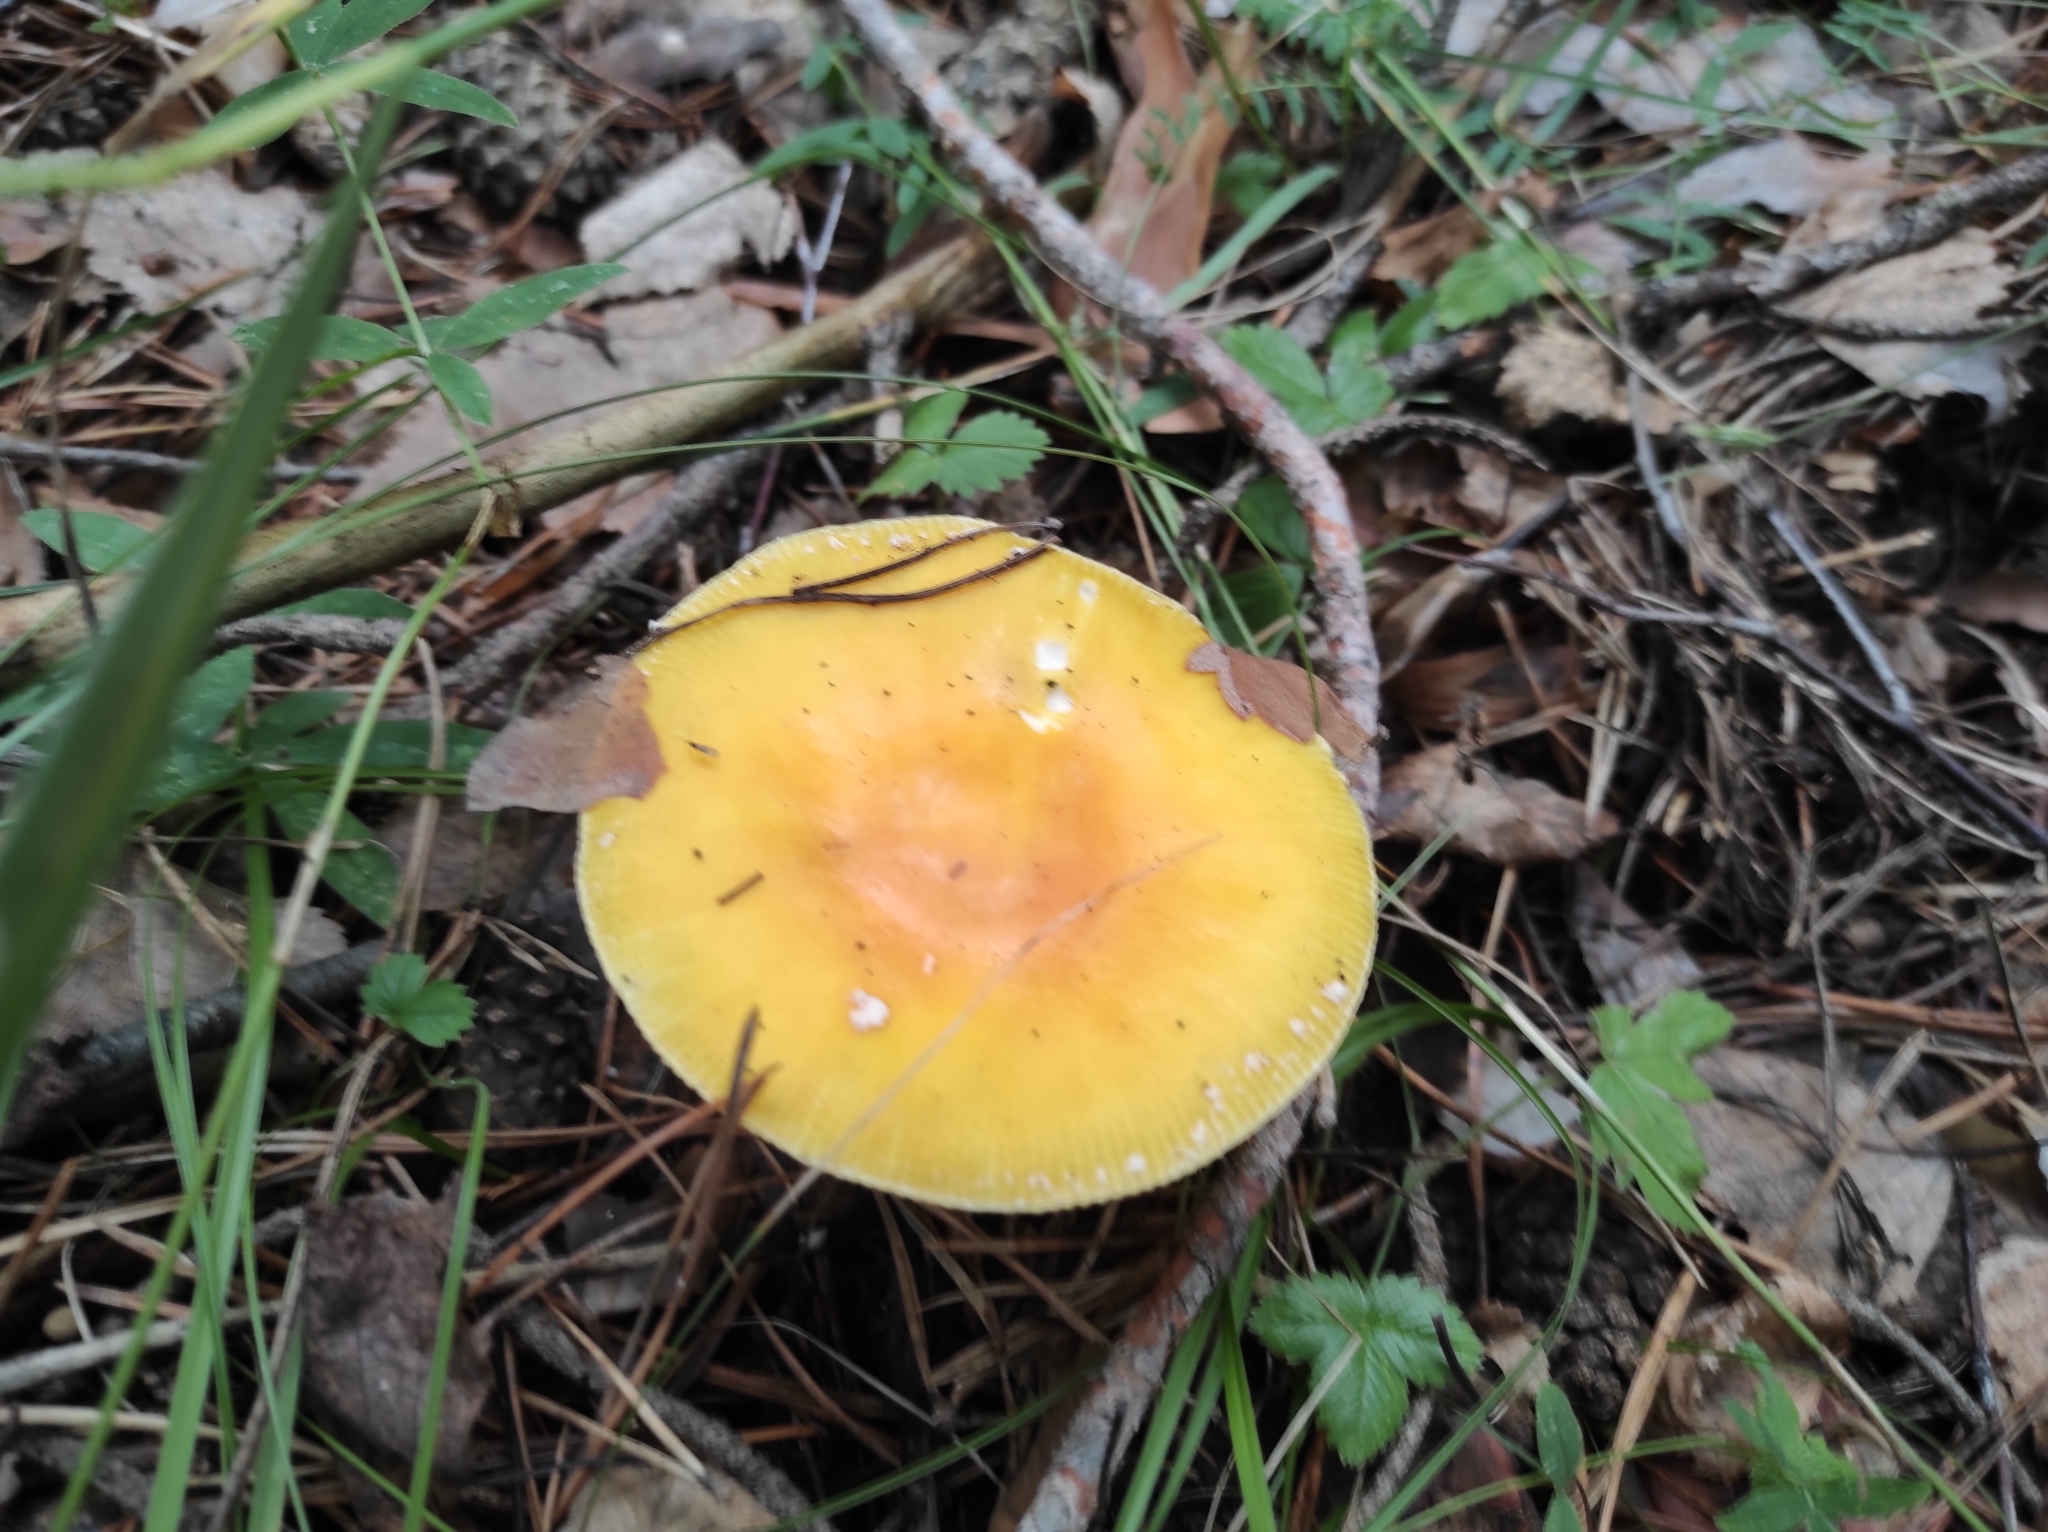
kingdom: Fungi
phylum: Basidiomycota
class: Agaricomycetes
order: Agaricales
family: Amanitaceae
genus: Amanita
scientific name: Amanita muscaria
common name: Fly agaric
